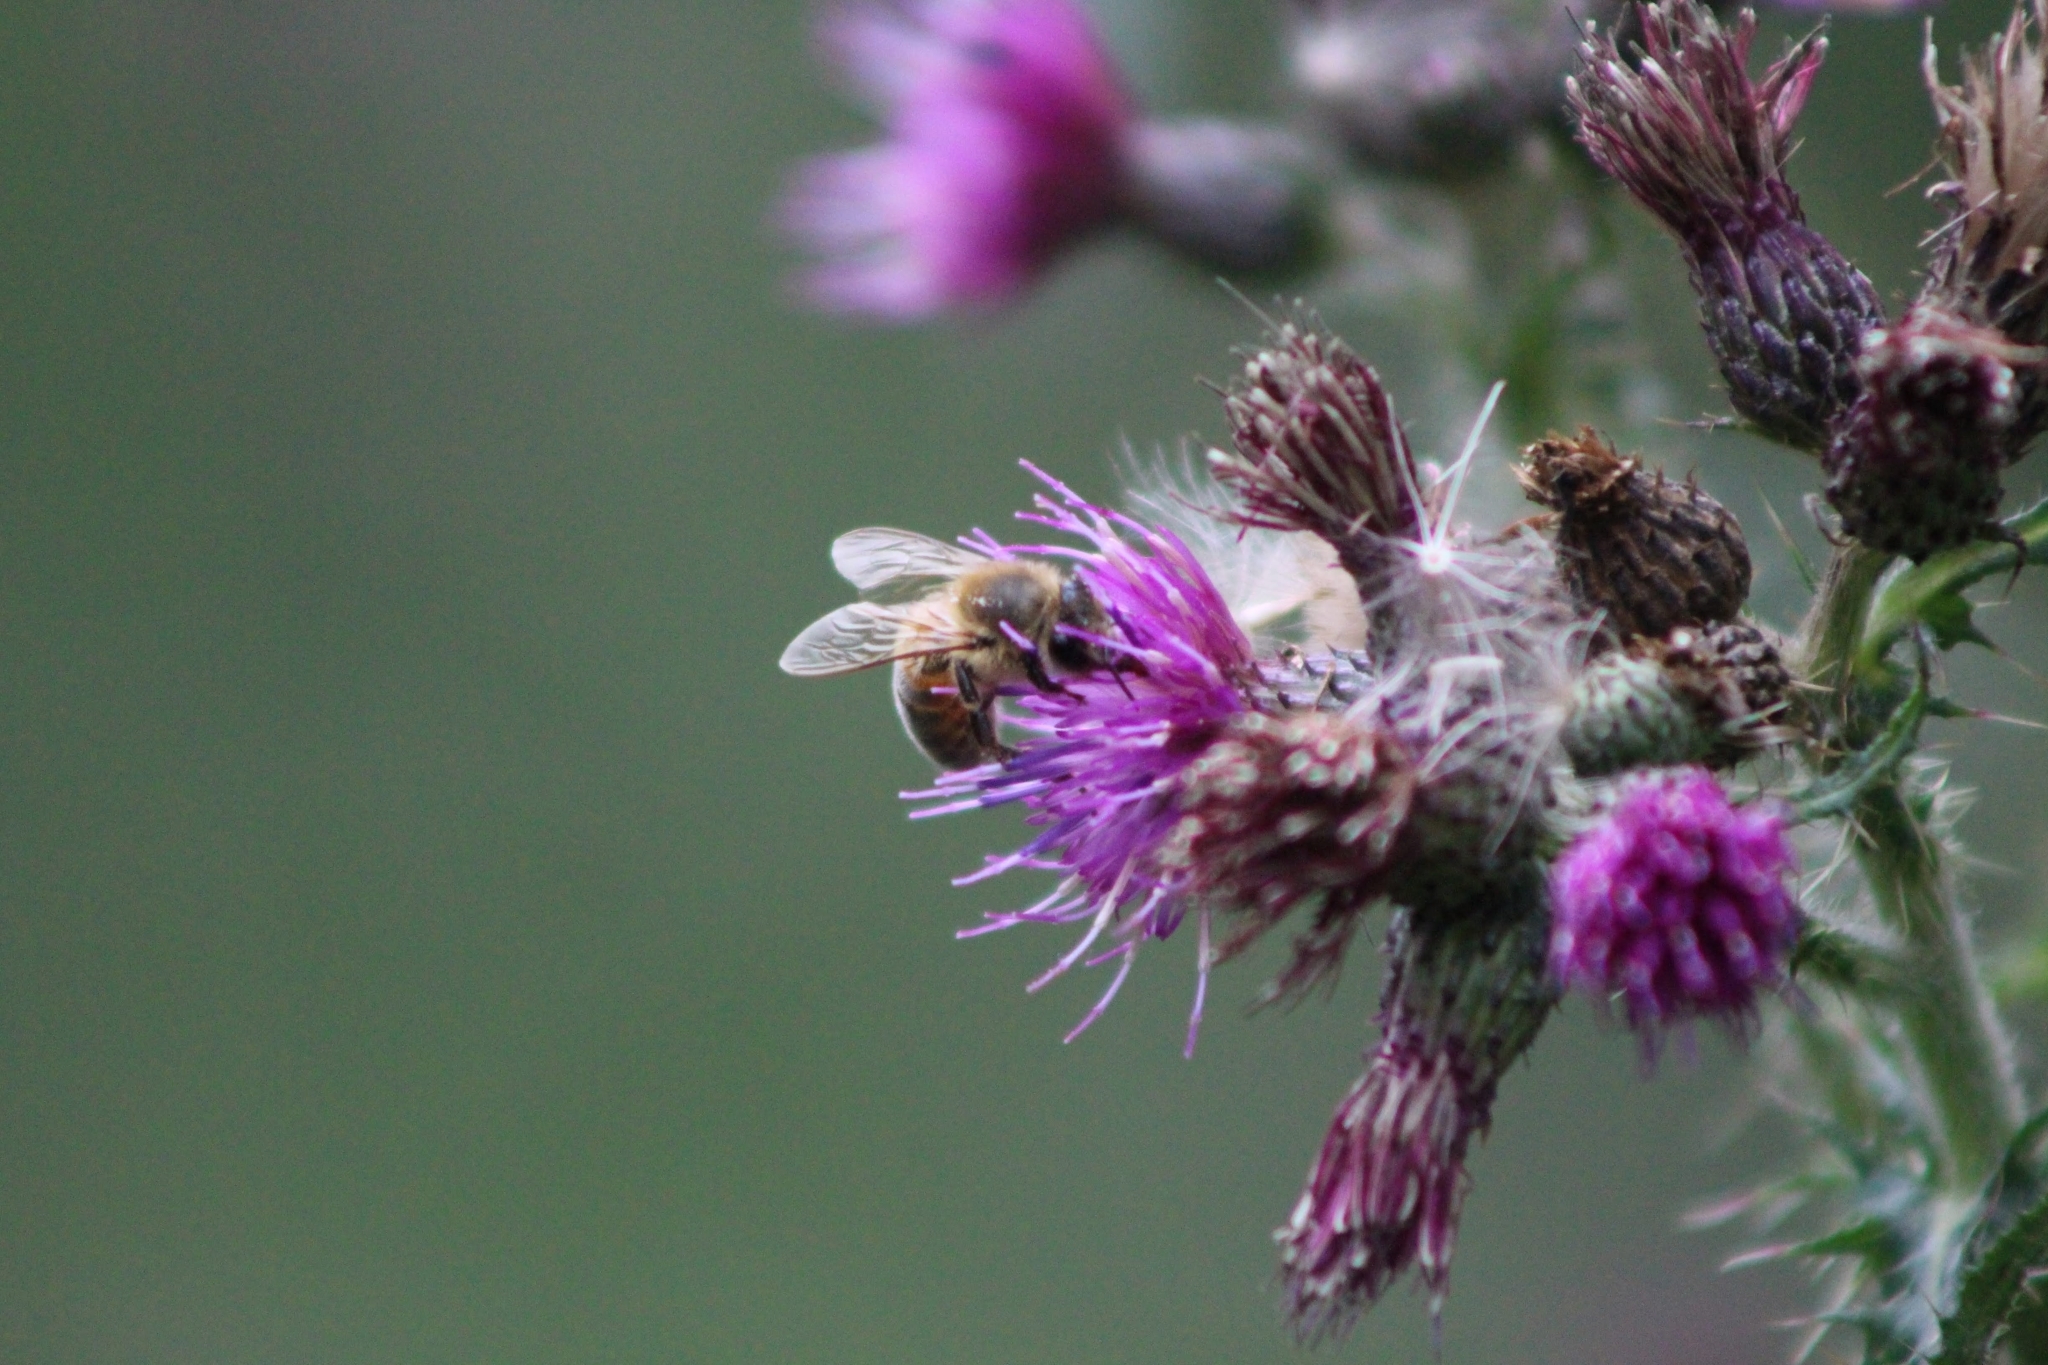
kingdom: Animalia
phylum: Arthropoda
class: Insecta
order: Hymenoptera
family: Apidae
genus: Apis
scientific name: Apis mellifera
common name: Honey bee
